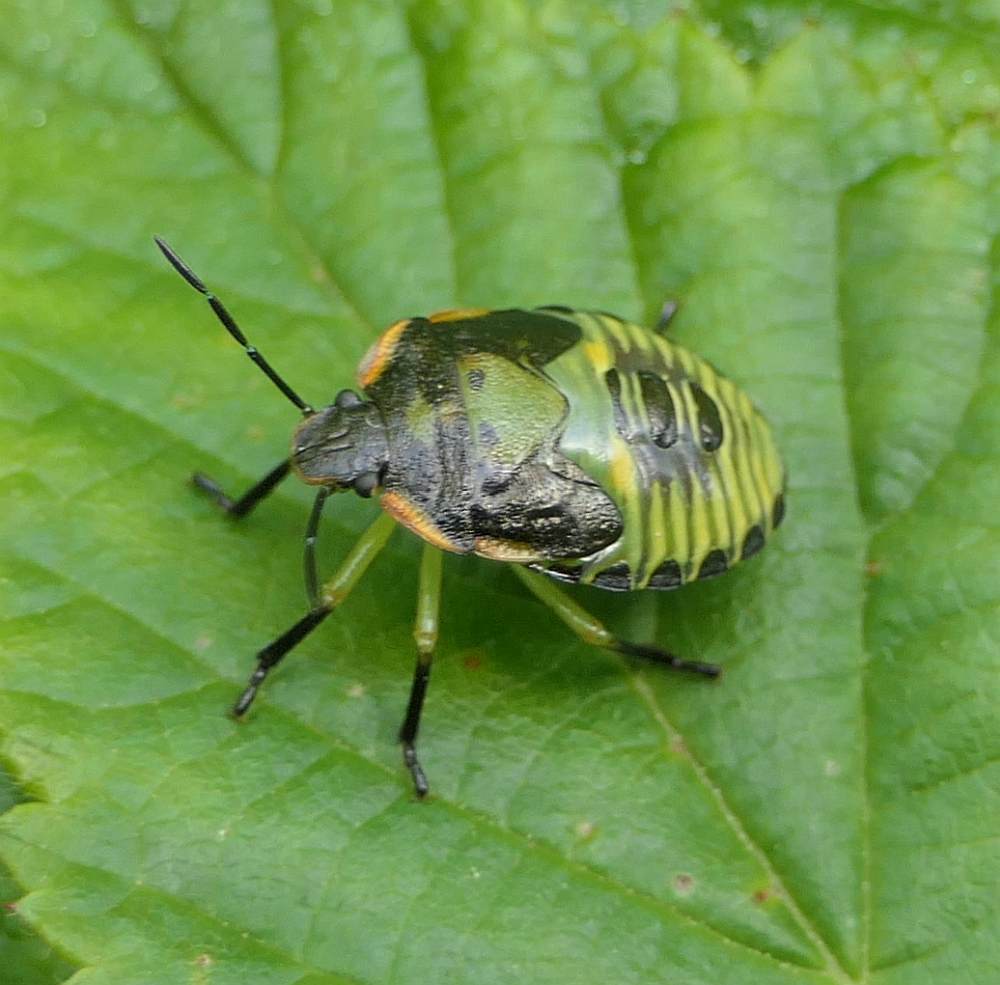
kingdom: Animalia
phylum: Arthropoda
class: Insecta
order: Hemiptera
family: Pentatomidae
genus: Chinavia
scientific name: Chinavia hilaris
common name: Green stink bug
